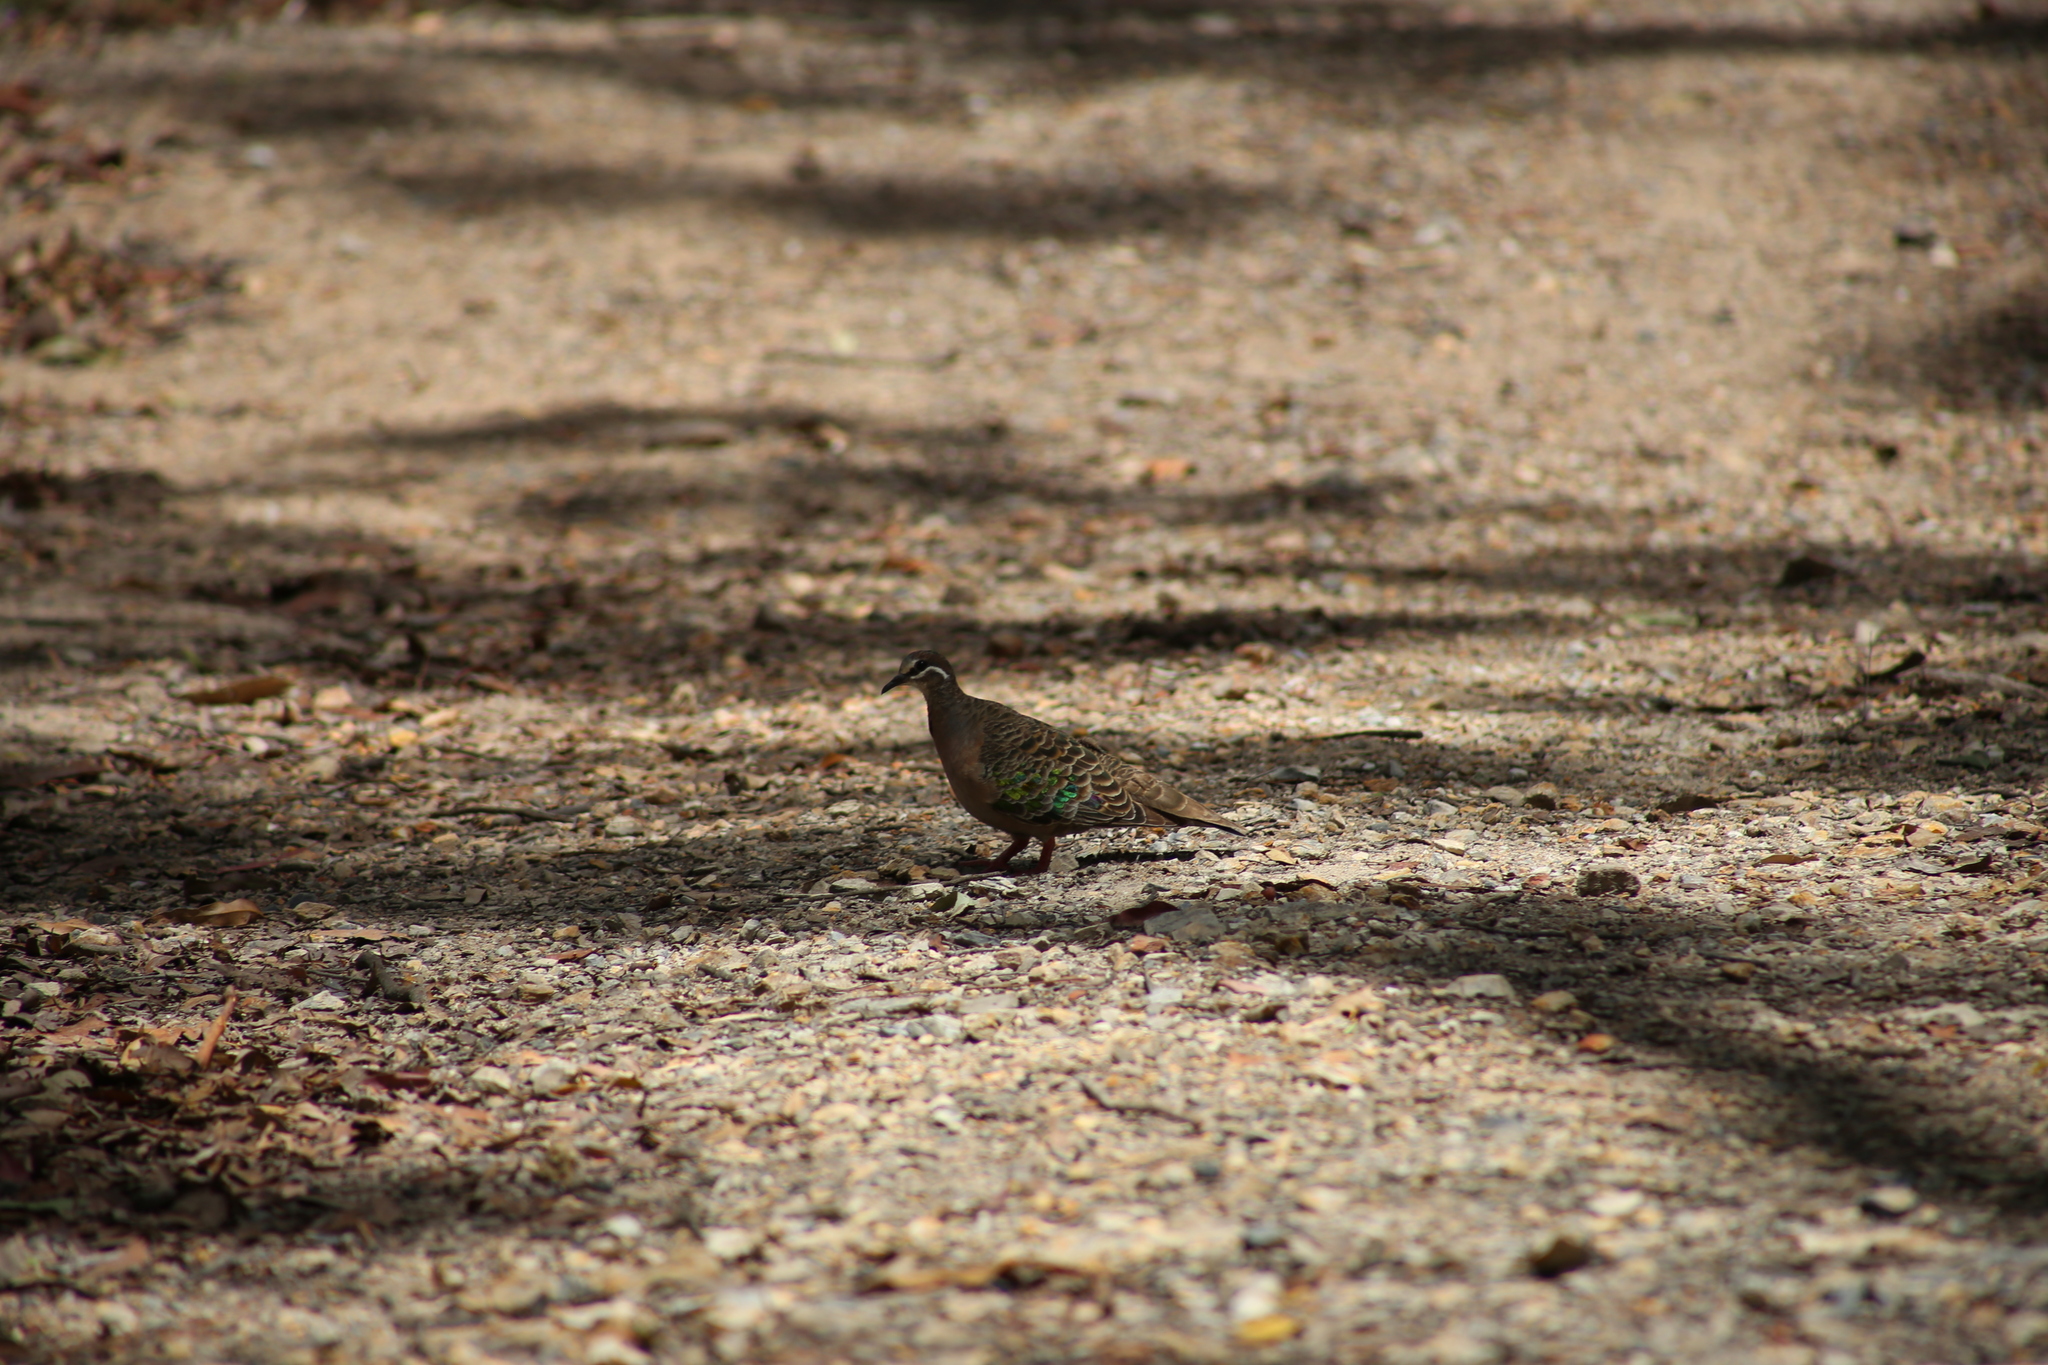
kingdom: Animalia
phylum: Chordata
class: Aves
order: Columbiformes
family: Columbidae
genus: Phaps
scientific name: Phaps chalcoptera
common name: Common bronzewing
